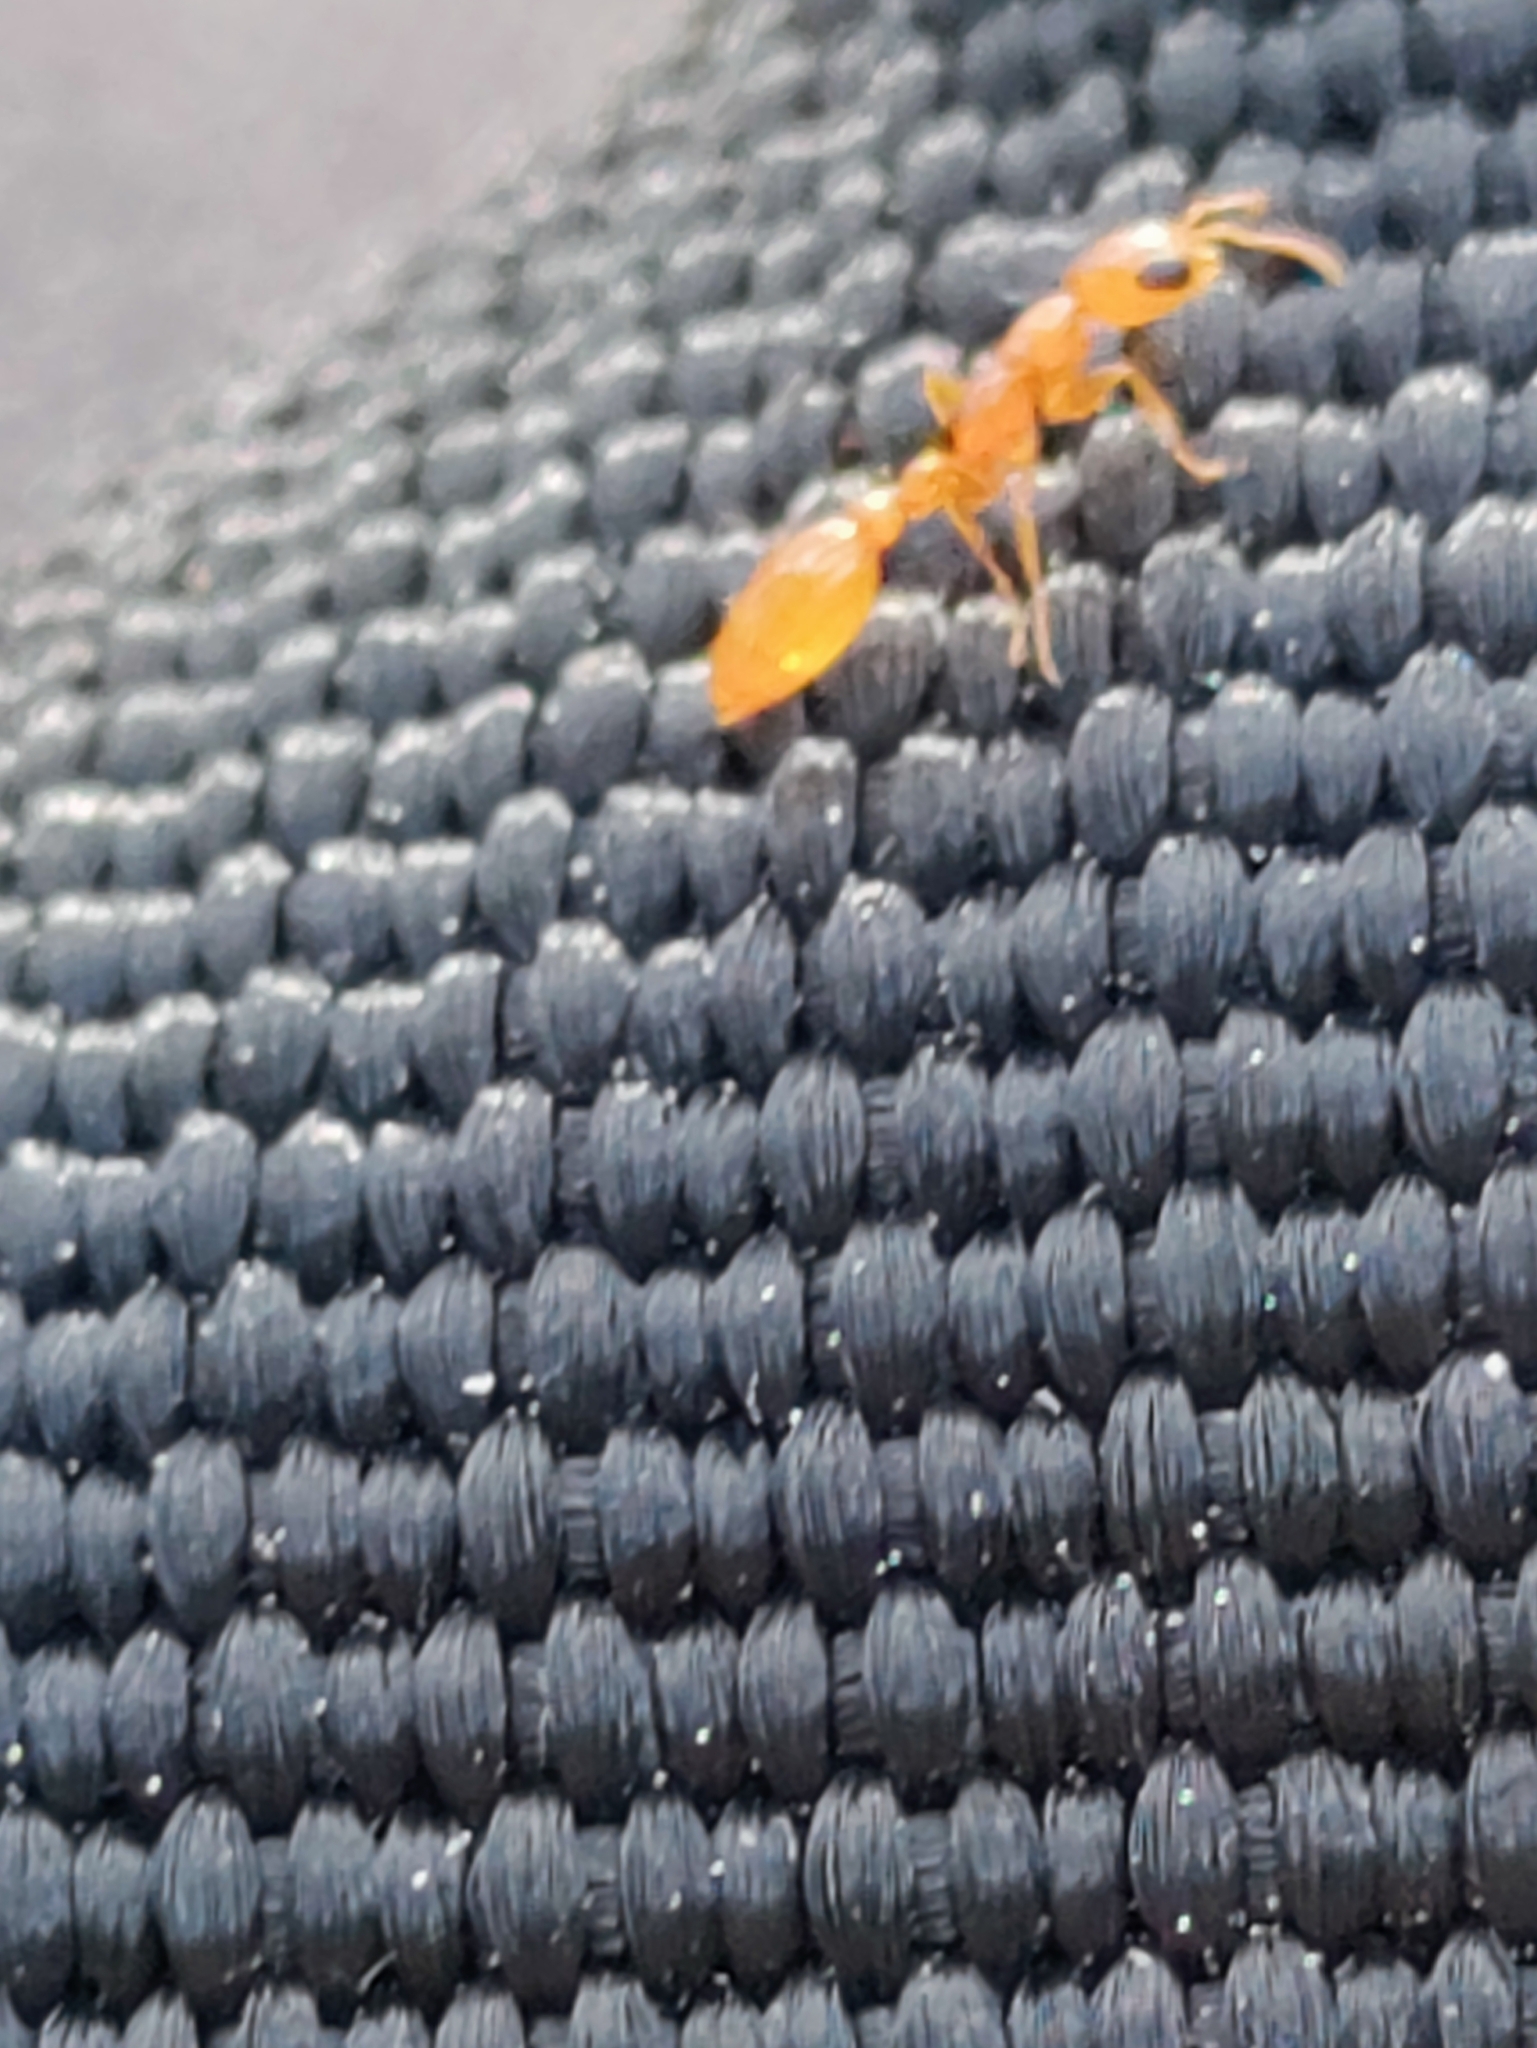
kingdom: Animalia
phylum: Arthropoda
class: Insecta
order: Hymenoptera
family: Formicidae
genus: Pseudomyrmex
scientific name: Pseudomyrmex pallidus
